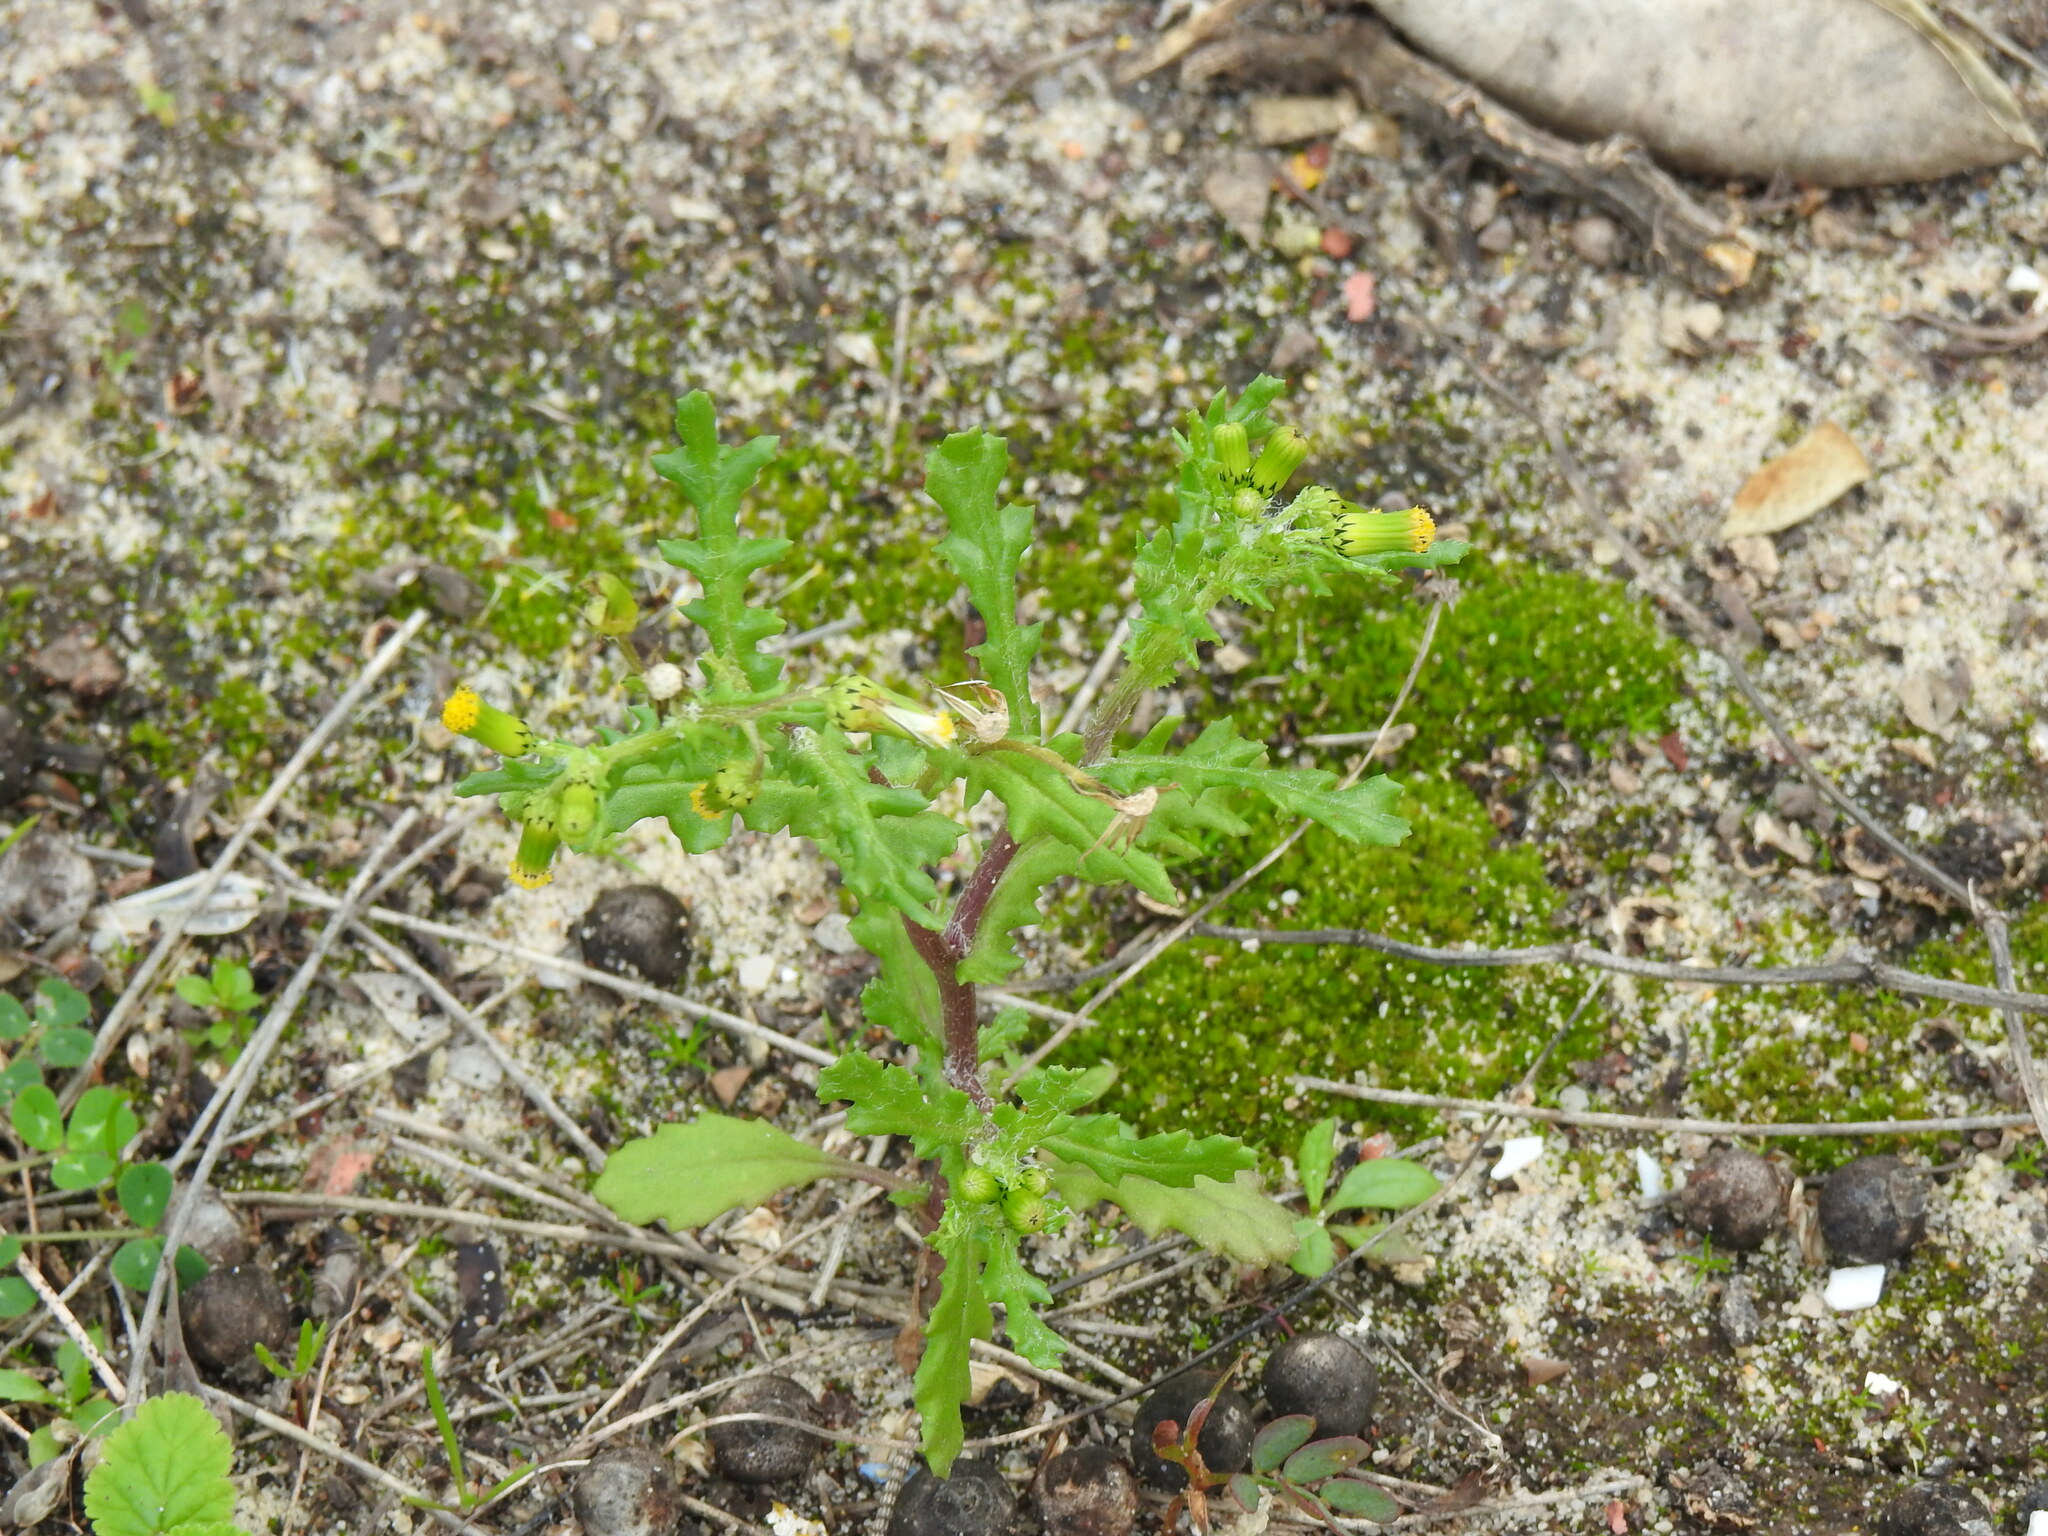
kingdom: Plantae
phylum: Tracheophyta
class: Magnoliopsida
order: Asterales
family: Asteraceae
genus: Senecio
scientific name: Senecio vulgaris
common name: Old-man-in-the-spring
